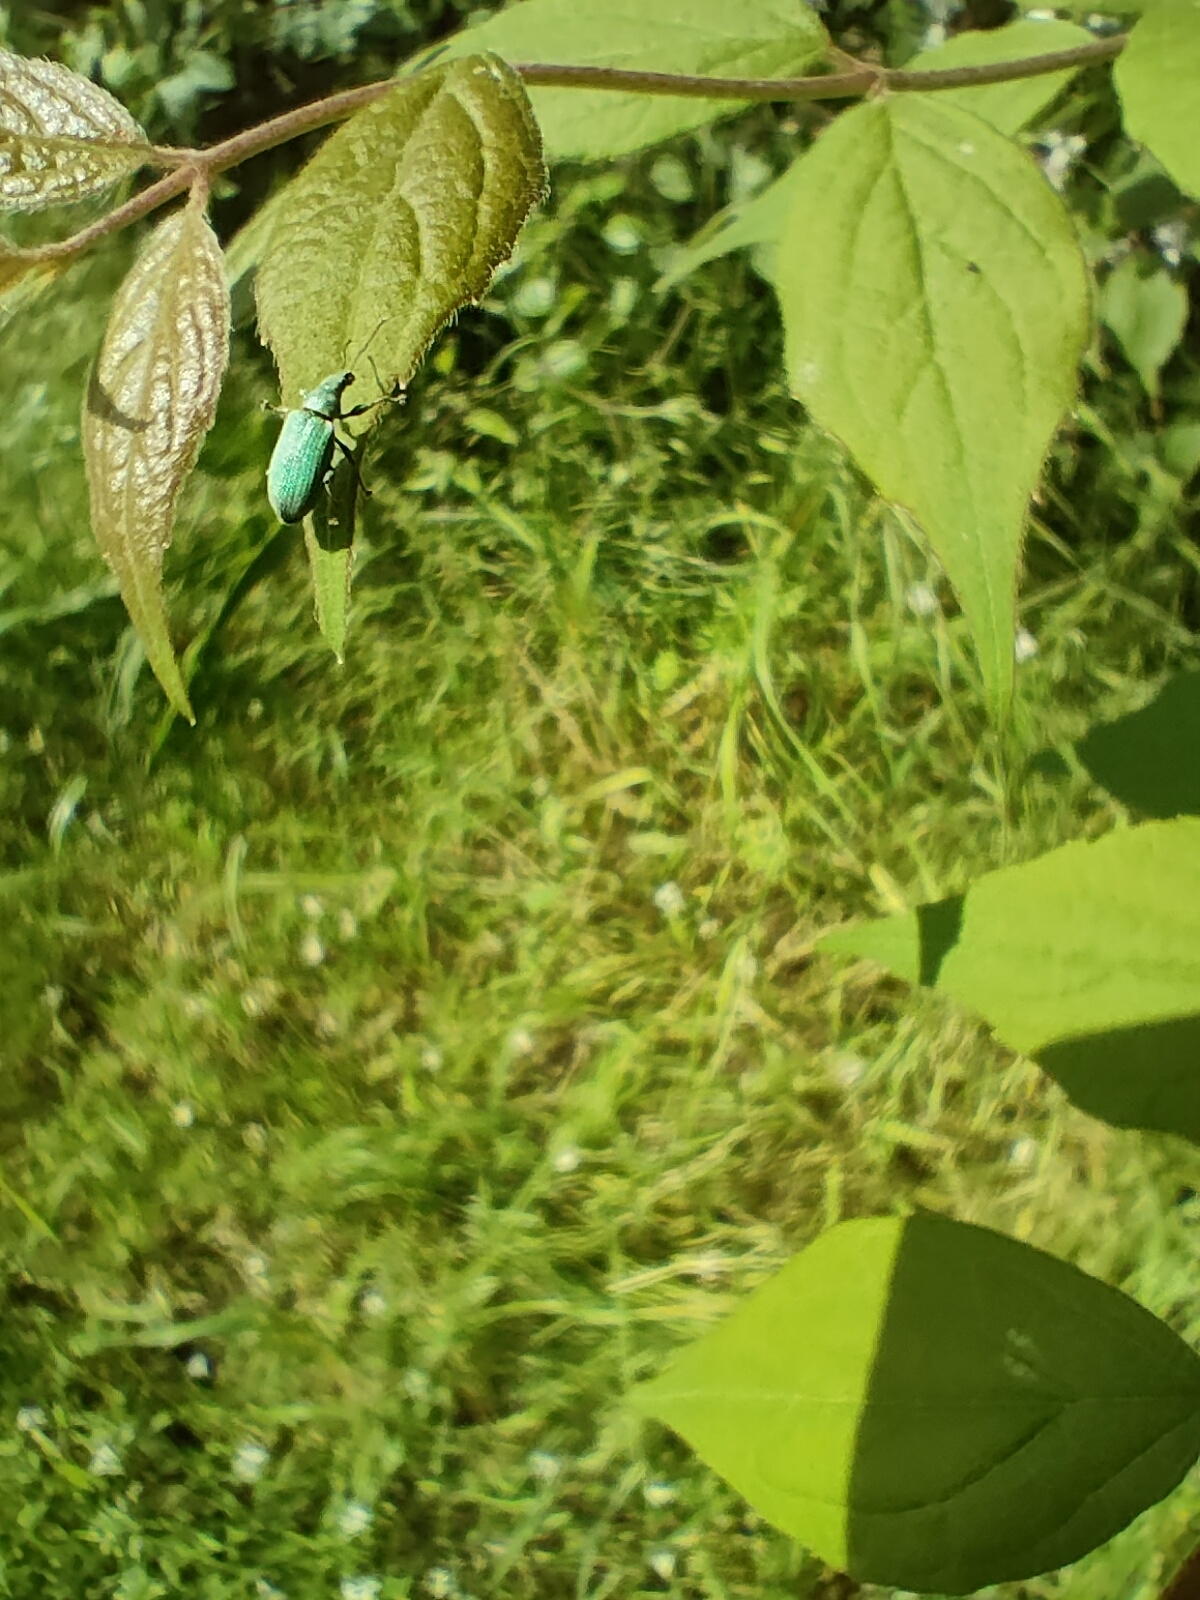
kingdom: Animalia
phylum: Arthropoda
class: Insecta
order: Coleoptera
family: Curculionidae
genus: Phyllobius
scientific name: Phyllobius maculicornis
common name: Green leaf weevil
